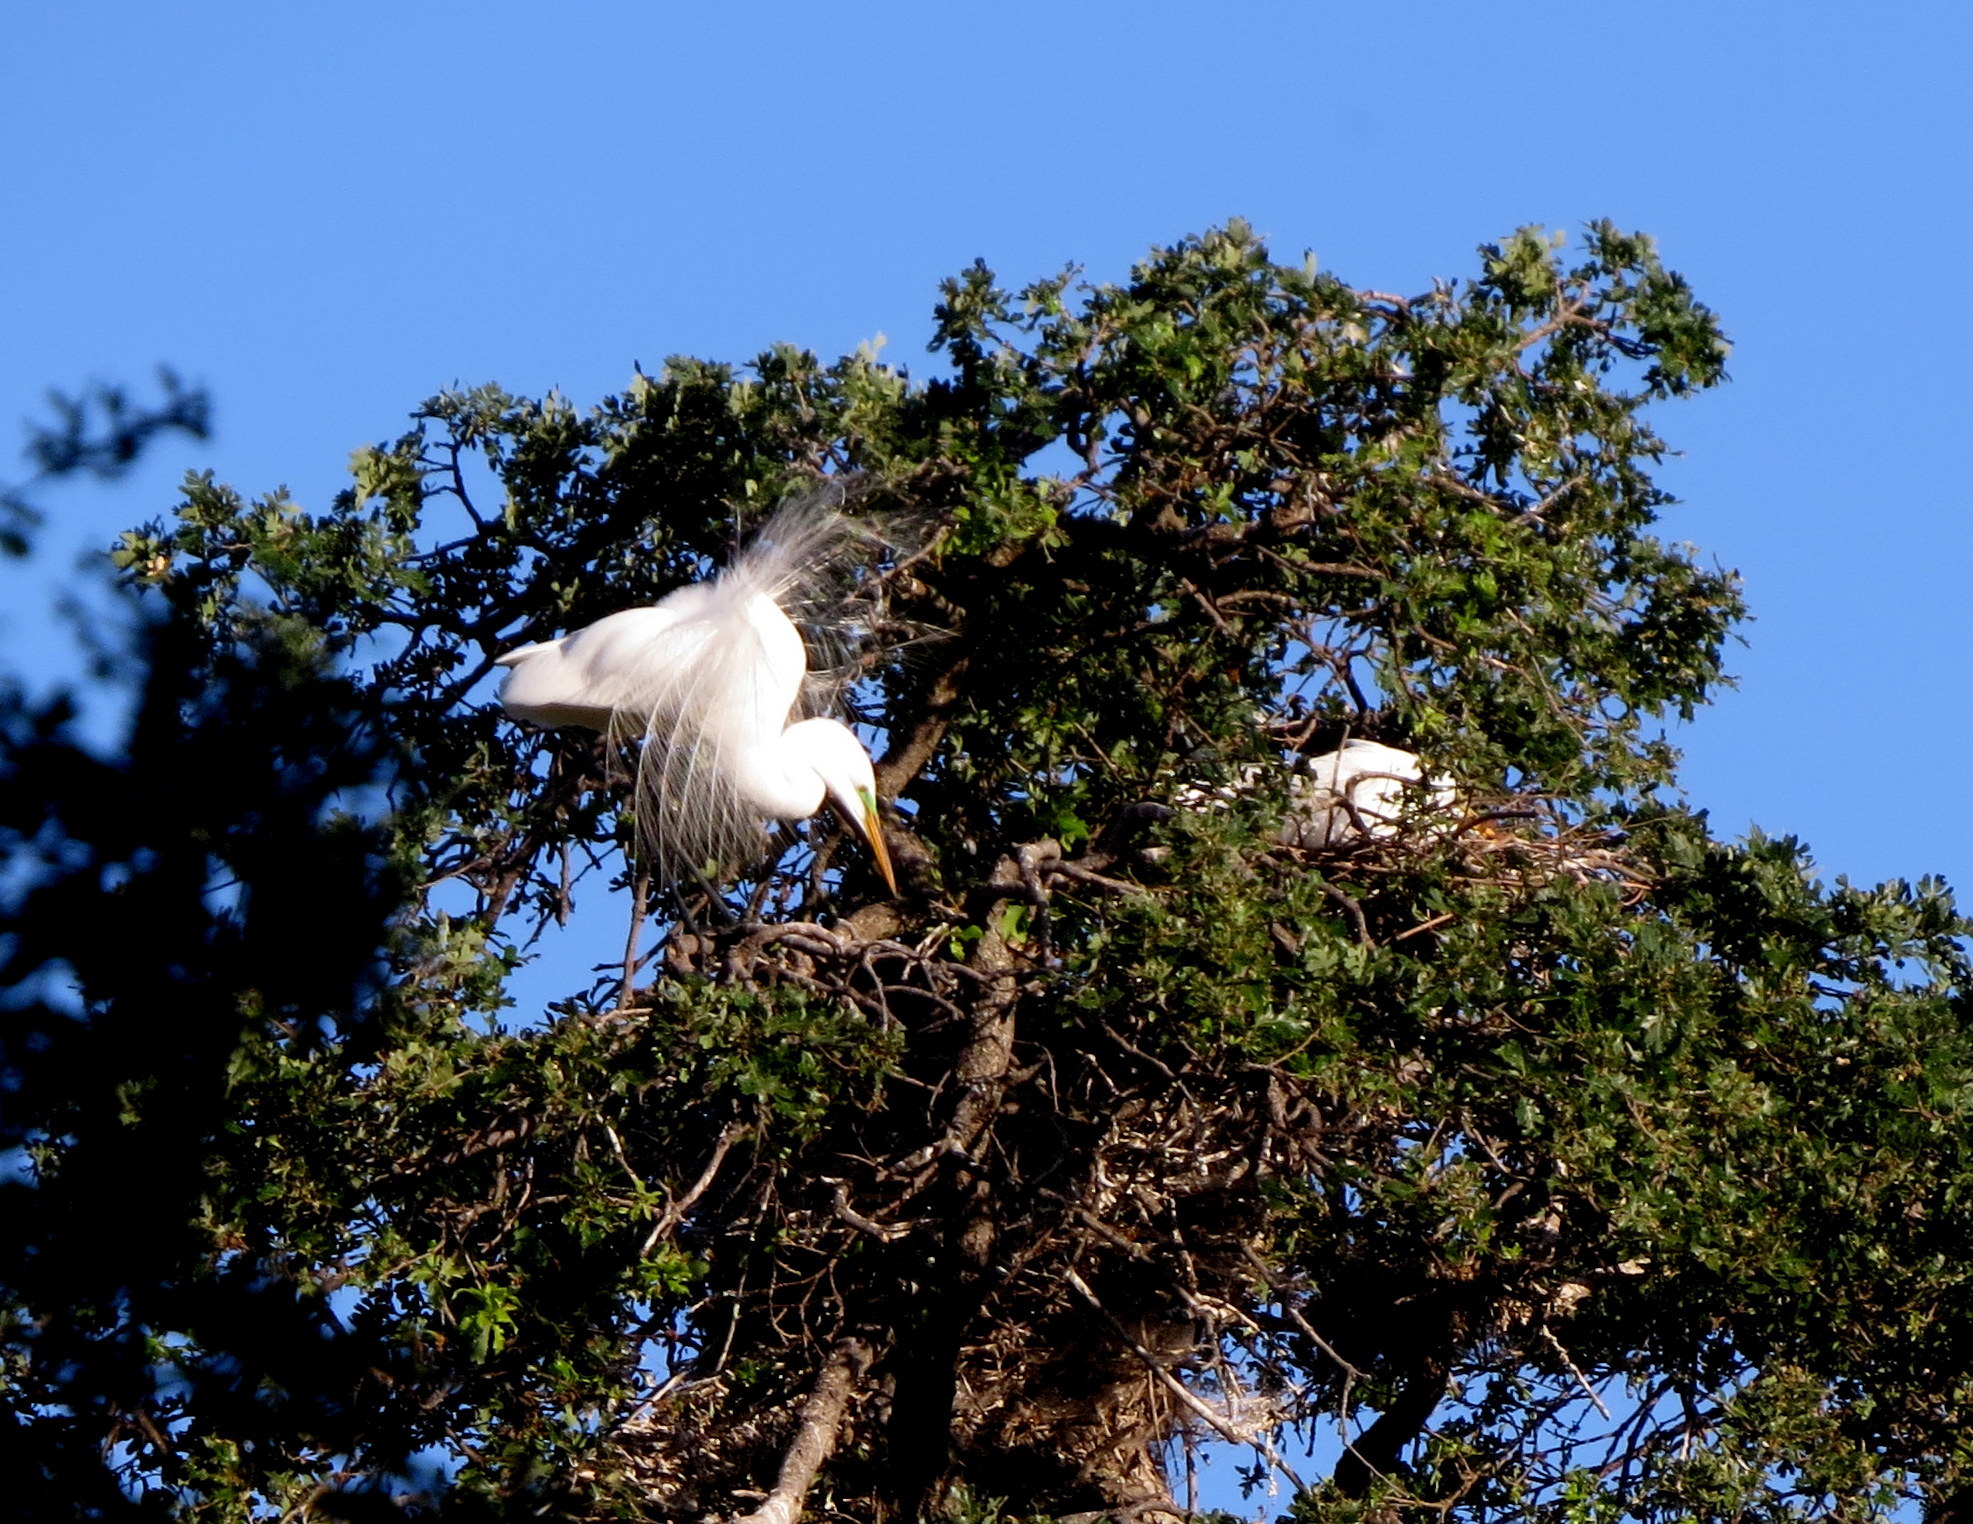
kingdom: Animalia
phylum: Chordata
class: Aves
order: Pelecaniformes
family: Ardeidae
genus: Ardea
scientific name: Ardea alba
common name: Great egret
